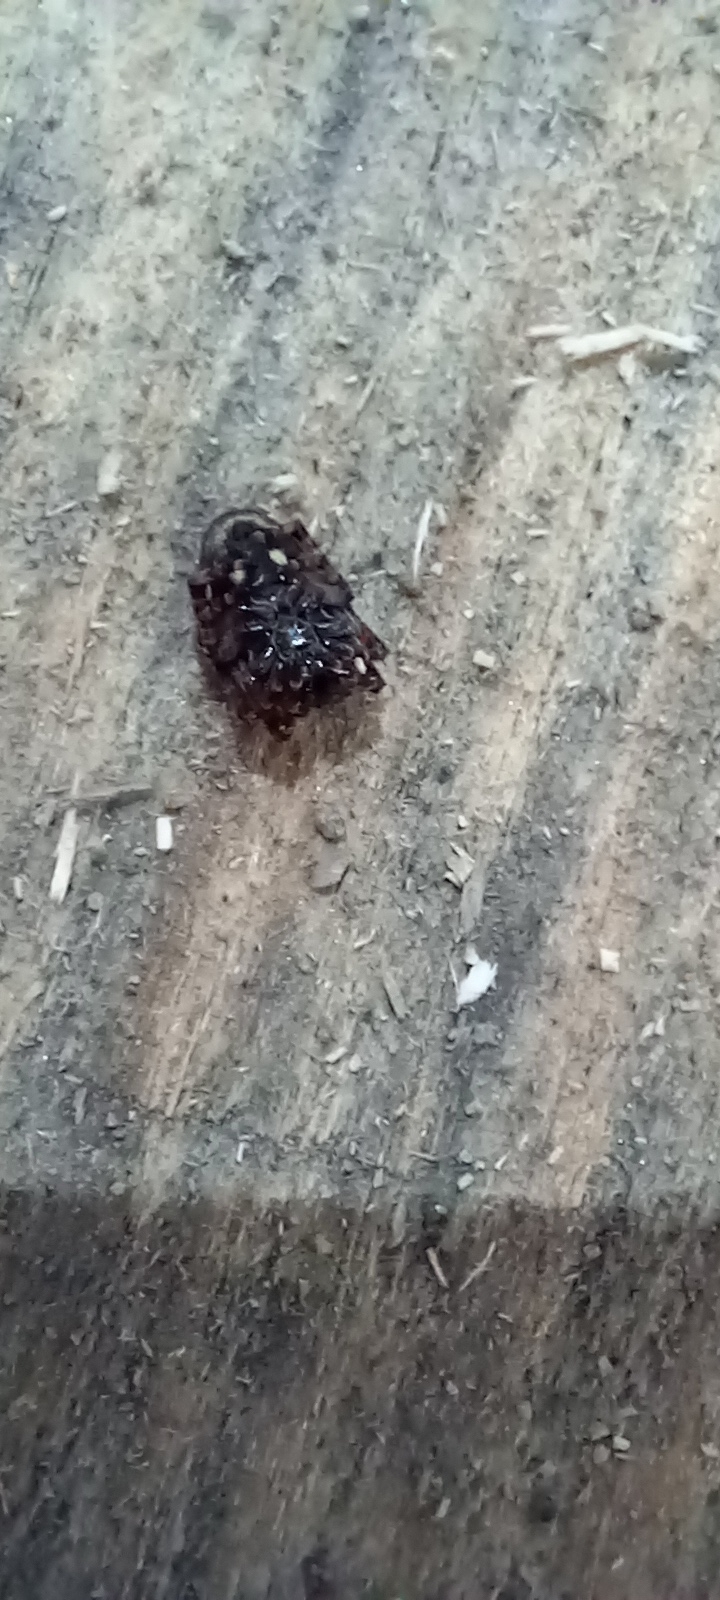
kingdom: Animalia
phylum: Arthropoda
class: Arachnida
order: Araneae
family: Araneidae
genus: Nuctenea
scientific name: Nuctenea umbratica
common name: Toad spider
